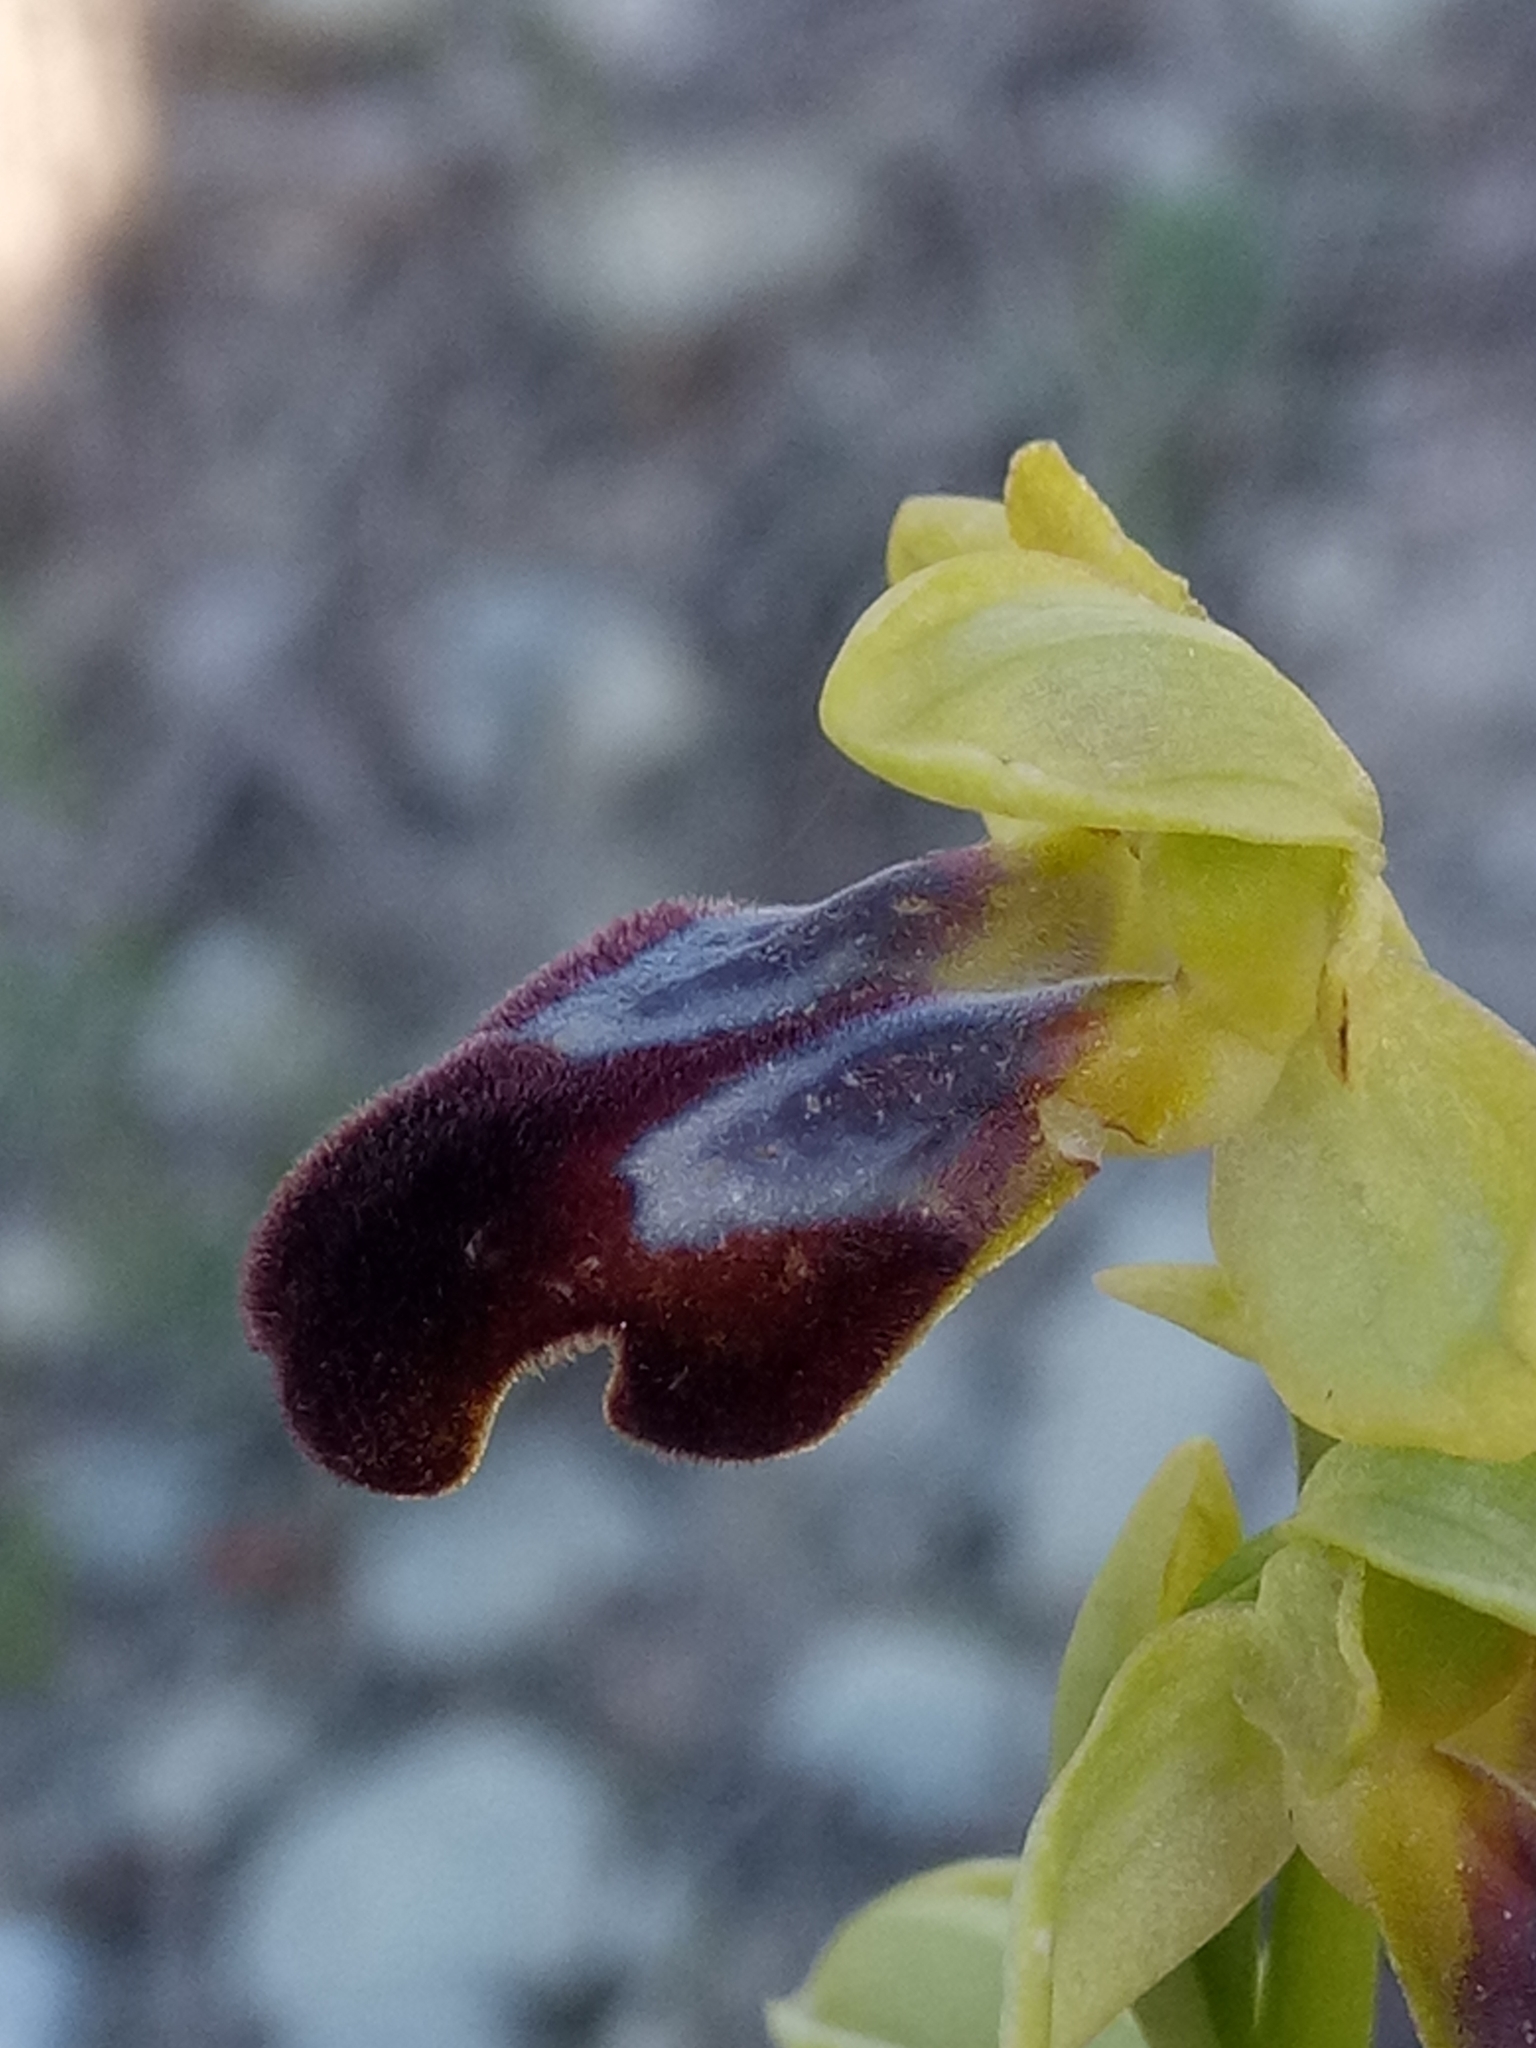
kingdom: Plantae
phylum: Tracheophyta
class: Liliopsida
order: Asparagales
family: Orchidaceae
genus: Ophrys
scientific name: Ophrys fusca
